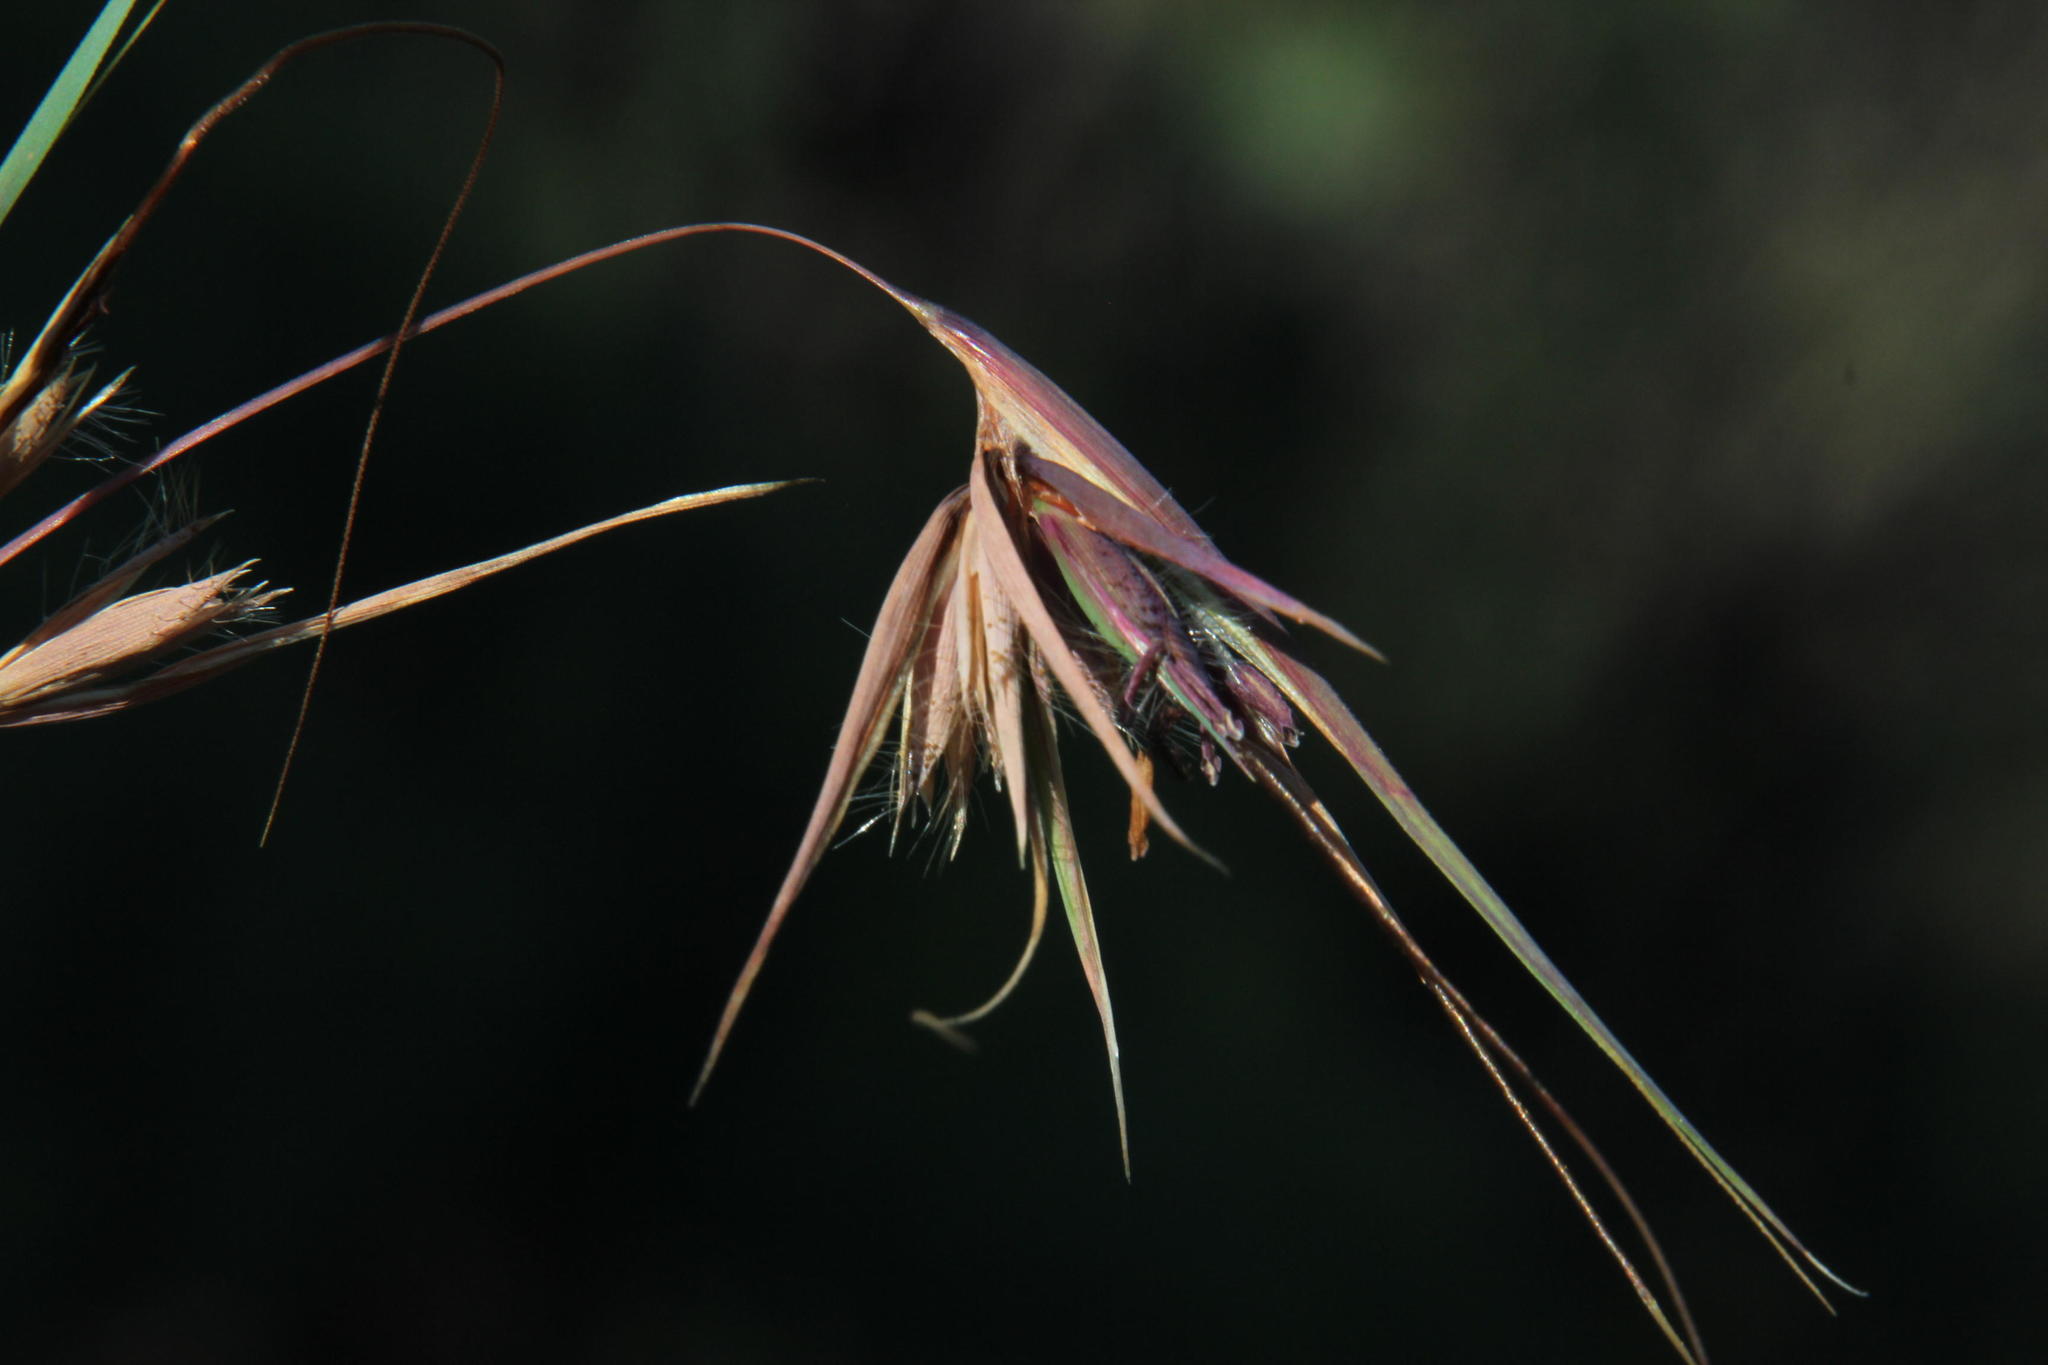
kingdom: Plantae
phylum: Tracheophyta
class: Liliopsida
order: Poales
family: Poaceae
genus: Themeda
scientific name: Themeda triandra
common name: Kangaroo grass
